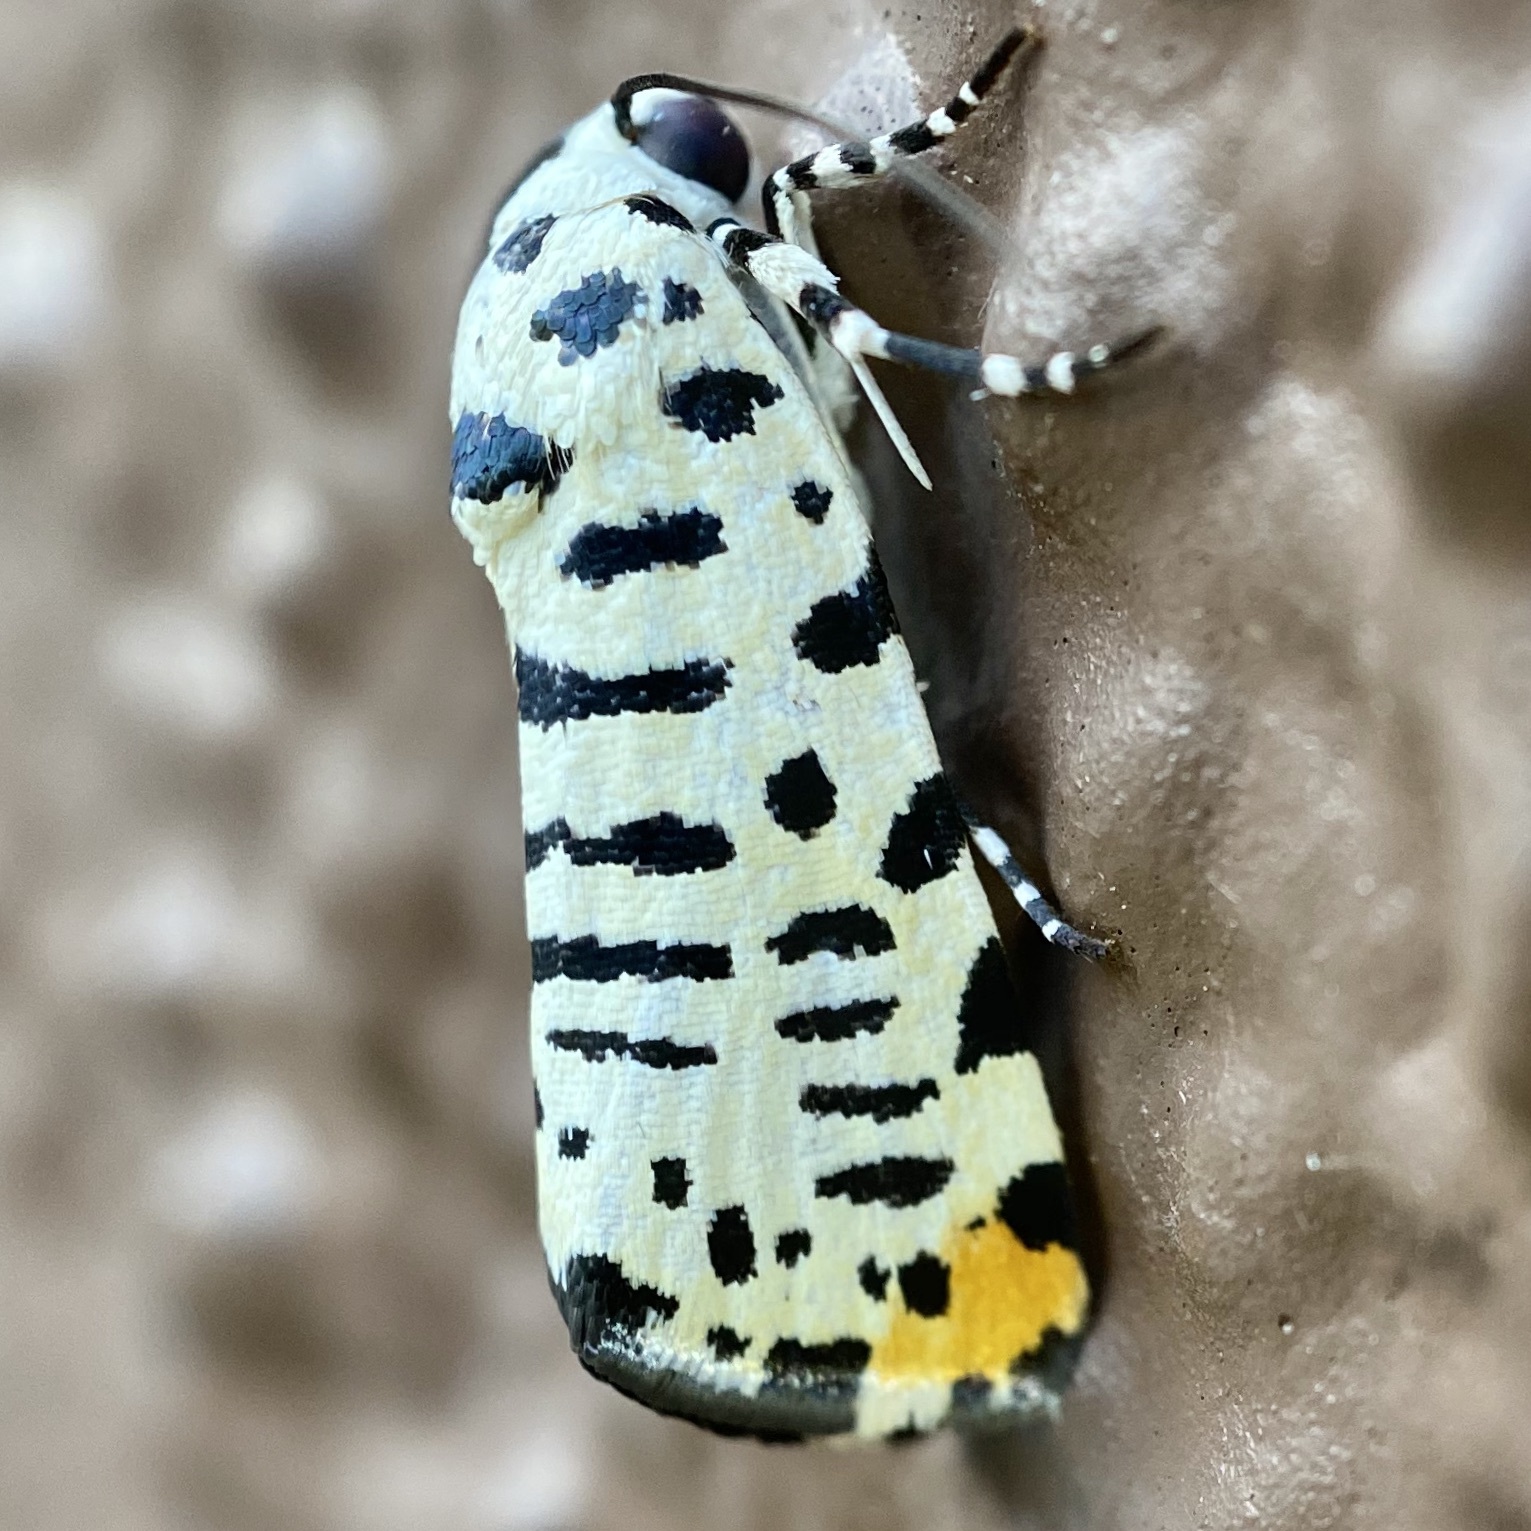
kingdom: Animalia
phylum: Arthropoda
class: Insecta
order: Lepidoptera
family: Noctuidae
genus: Acontia
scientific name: Acontia idella
